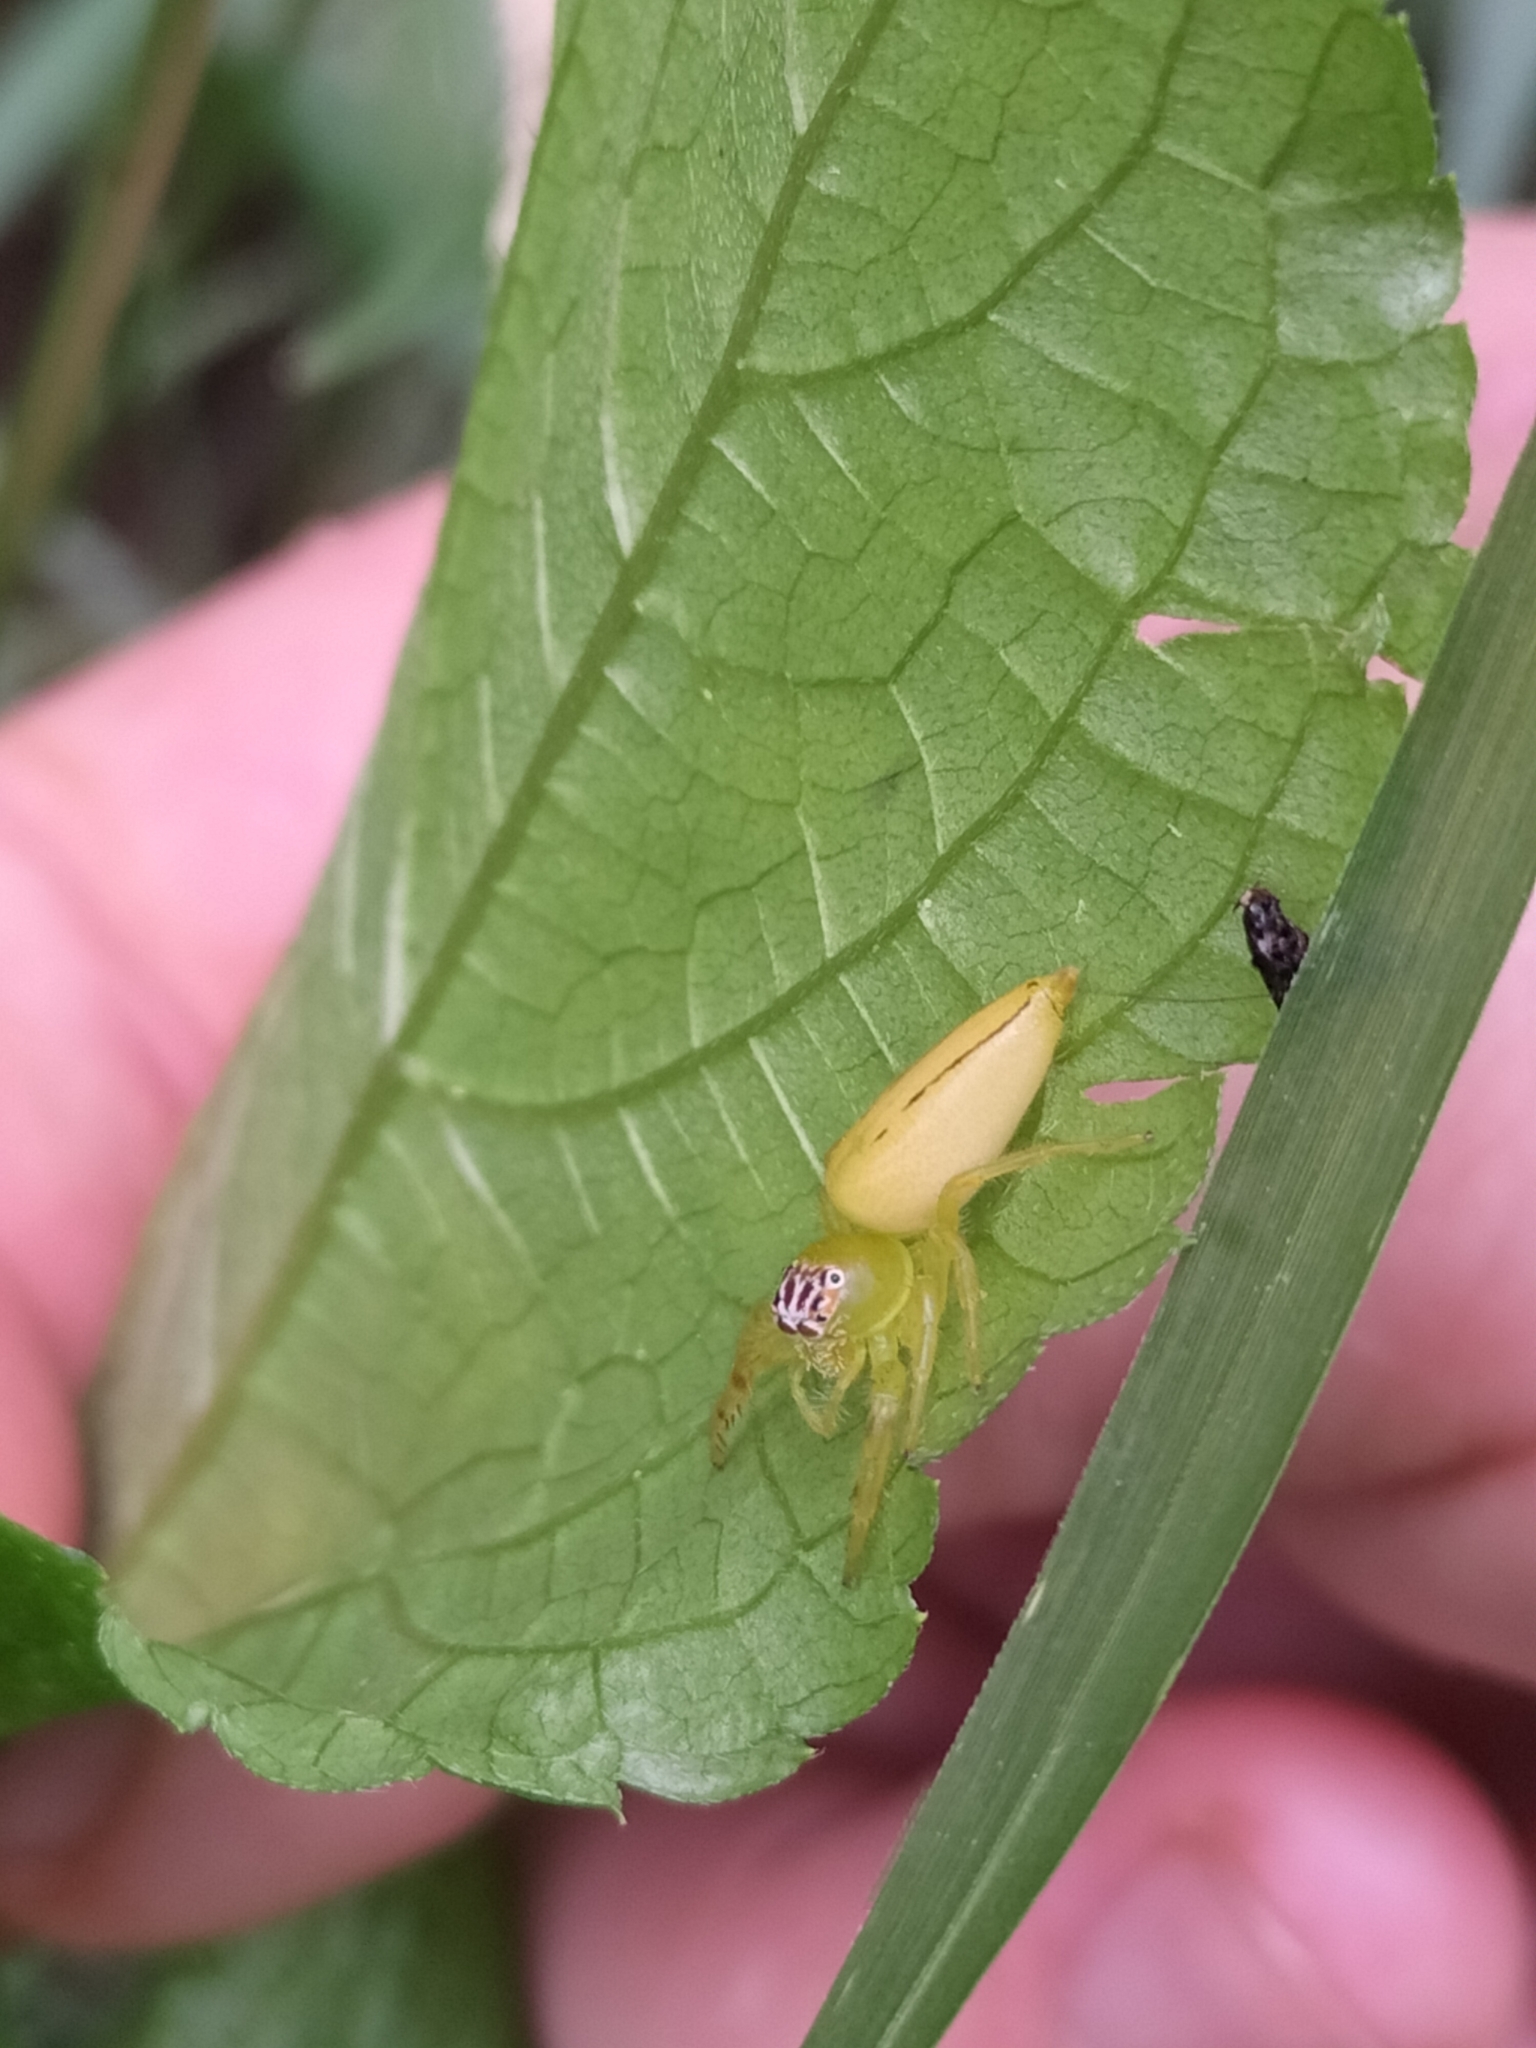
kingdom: Animalia
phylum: Arthropoda
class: Arachnida
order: Araneae
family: Salticidae
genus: Mopsus
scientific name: Mopsus mormon
